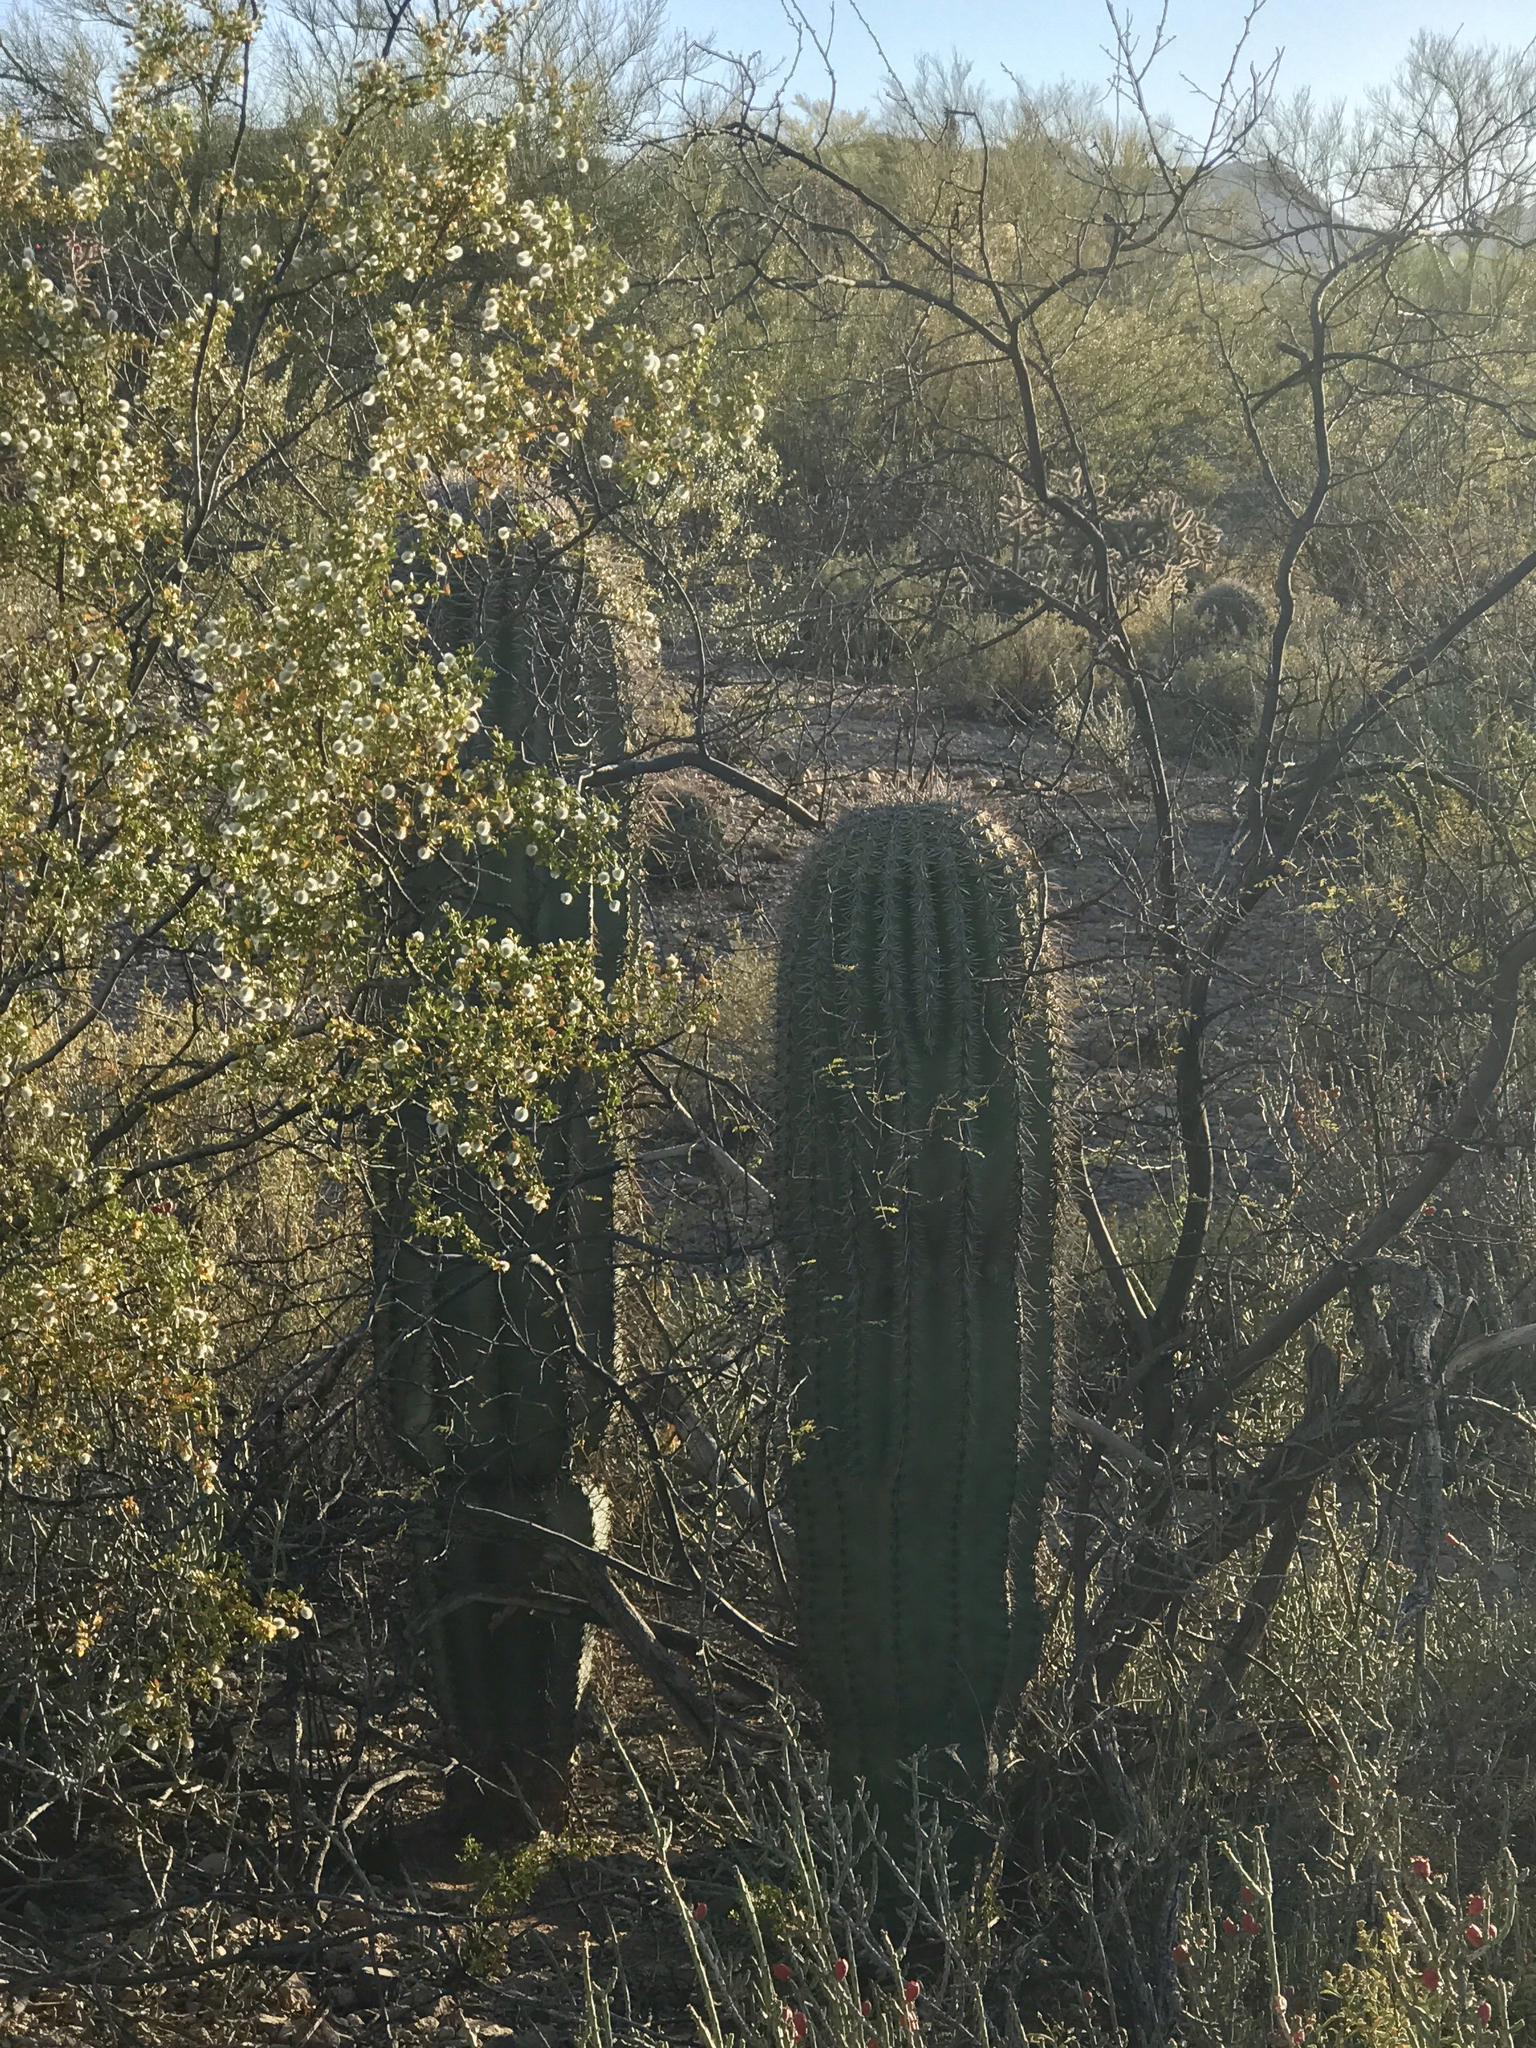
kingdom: Plantae
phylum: Tracheophyta
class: Magnoliopsida
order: Caryophyllales
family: Cactaceae
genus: Carnegiea
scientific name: Carnegiea gigantea
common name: Saguaro
